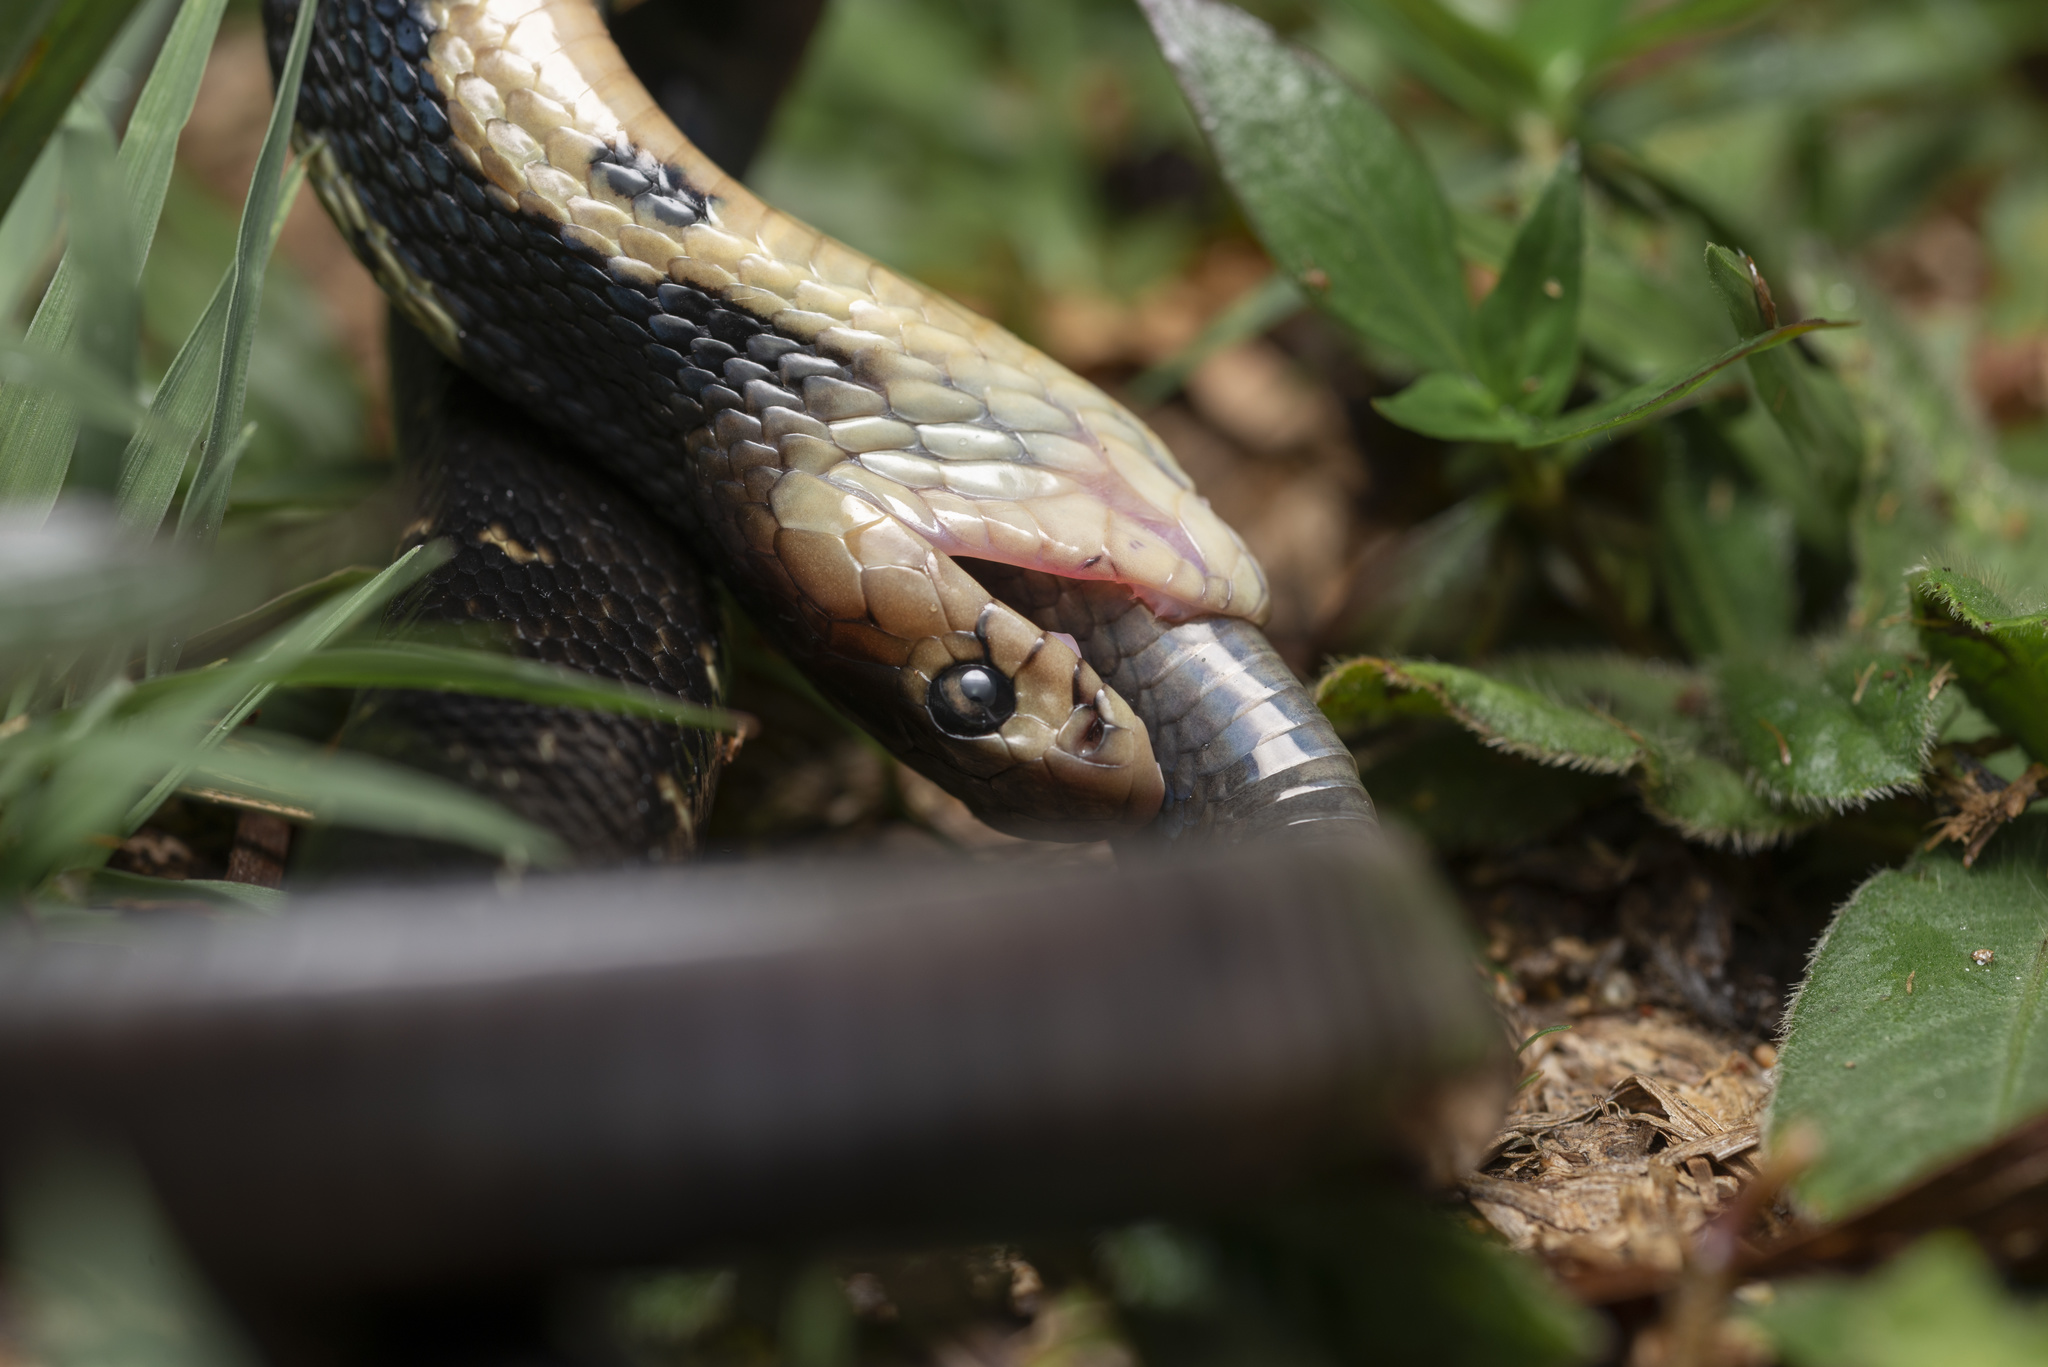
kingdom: Animalia
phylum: Chordata
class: Squamata
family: Elapidae
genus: Naja
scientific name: Naja atra
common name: Chinese cobra
